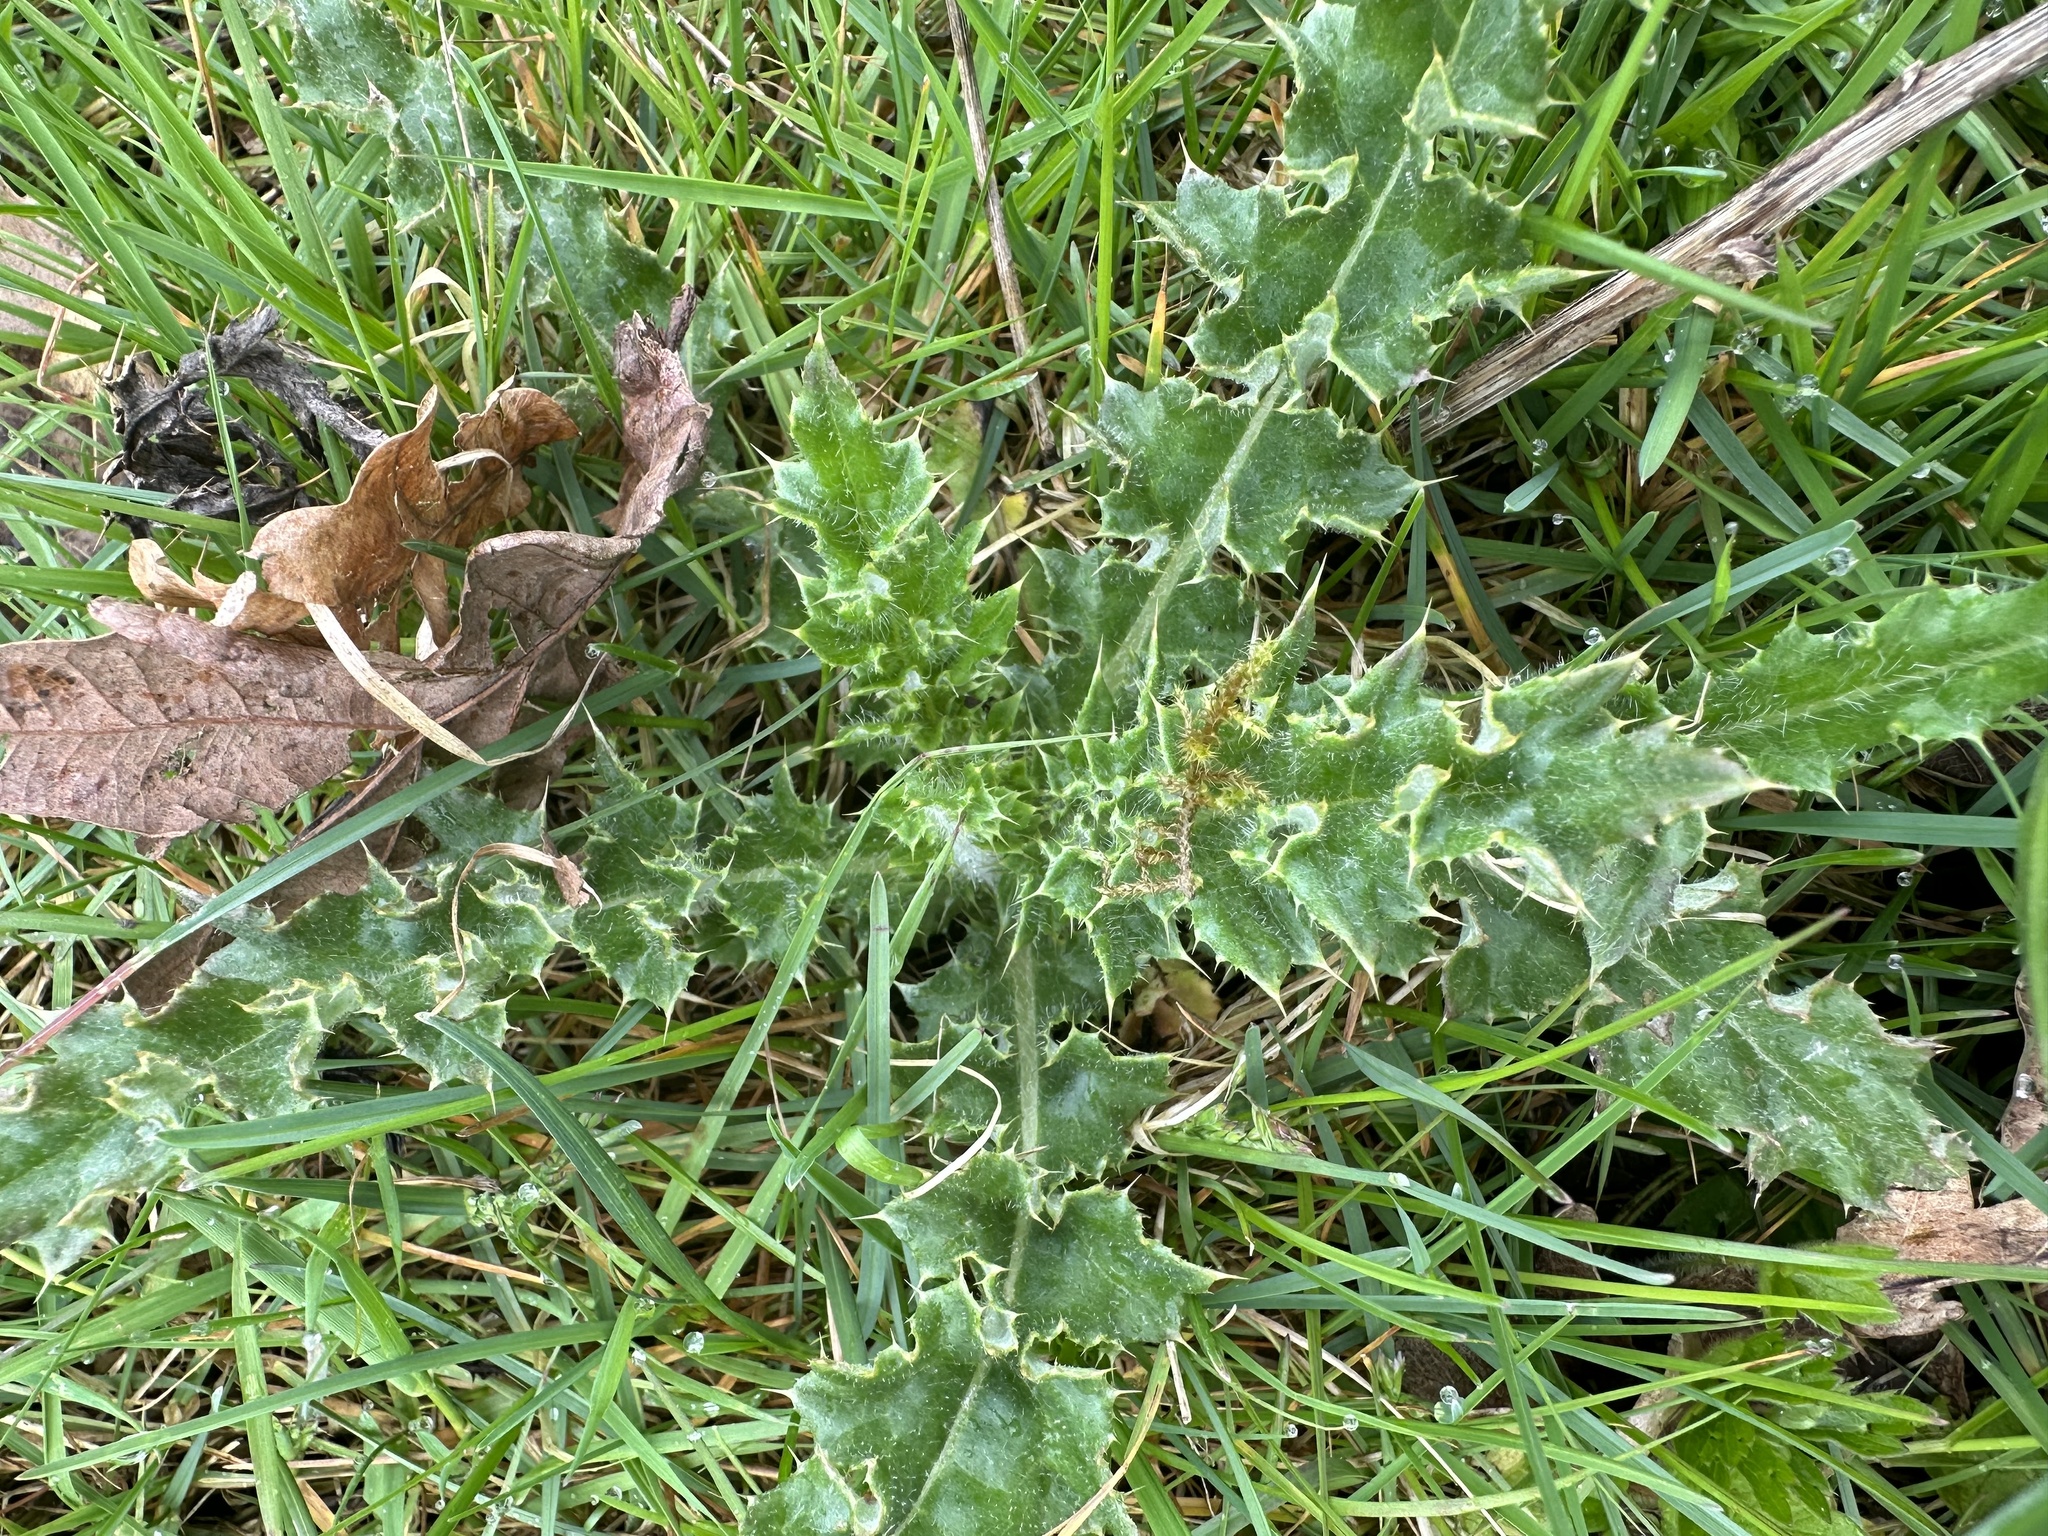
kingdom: Plantae
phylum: Tracheophyta
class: Magnoliopsida
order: Asterales
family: Asteraceae
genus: Cirsium
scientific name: Cirsium arvense
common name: Creeping thistle
